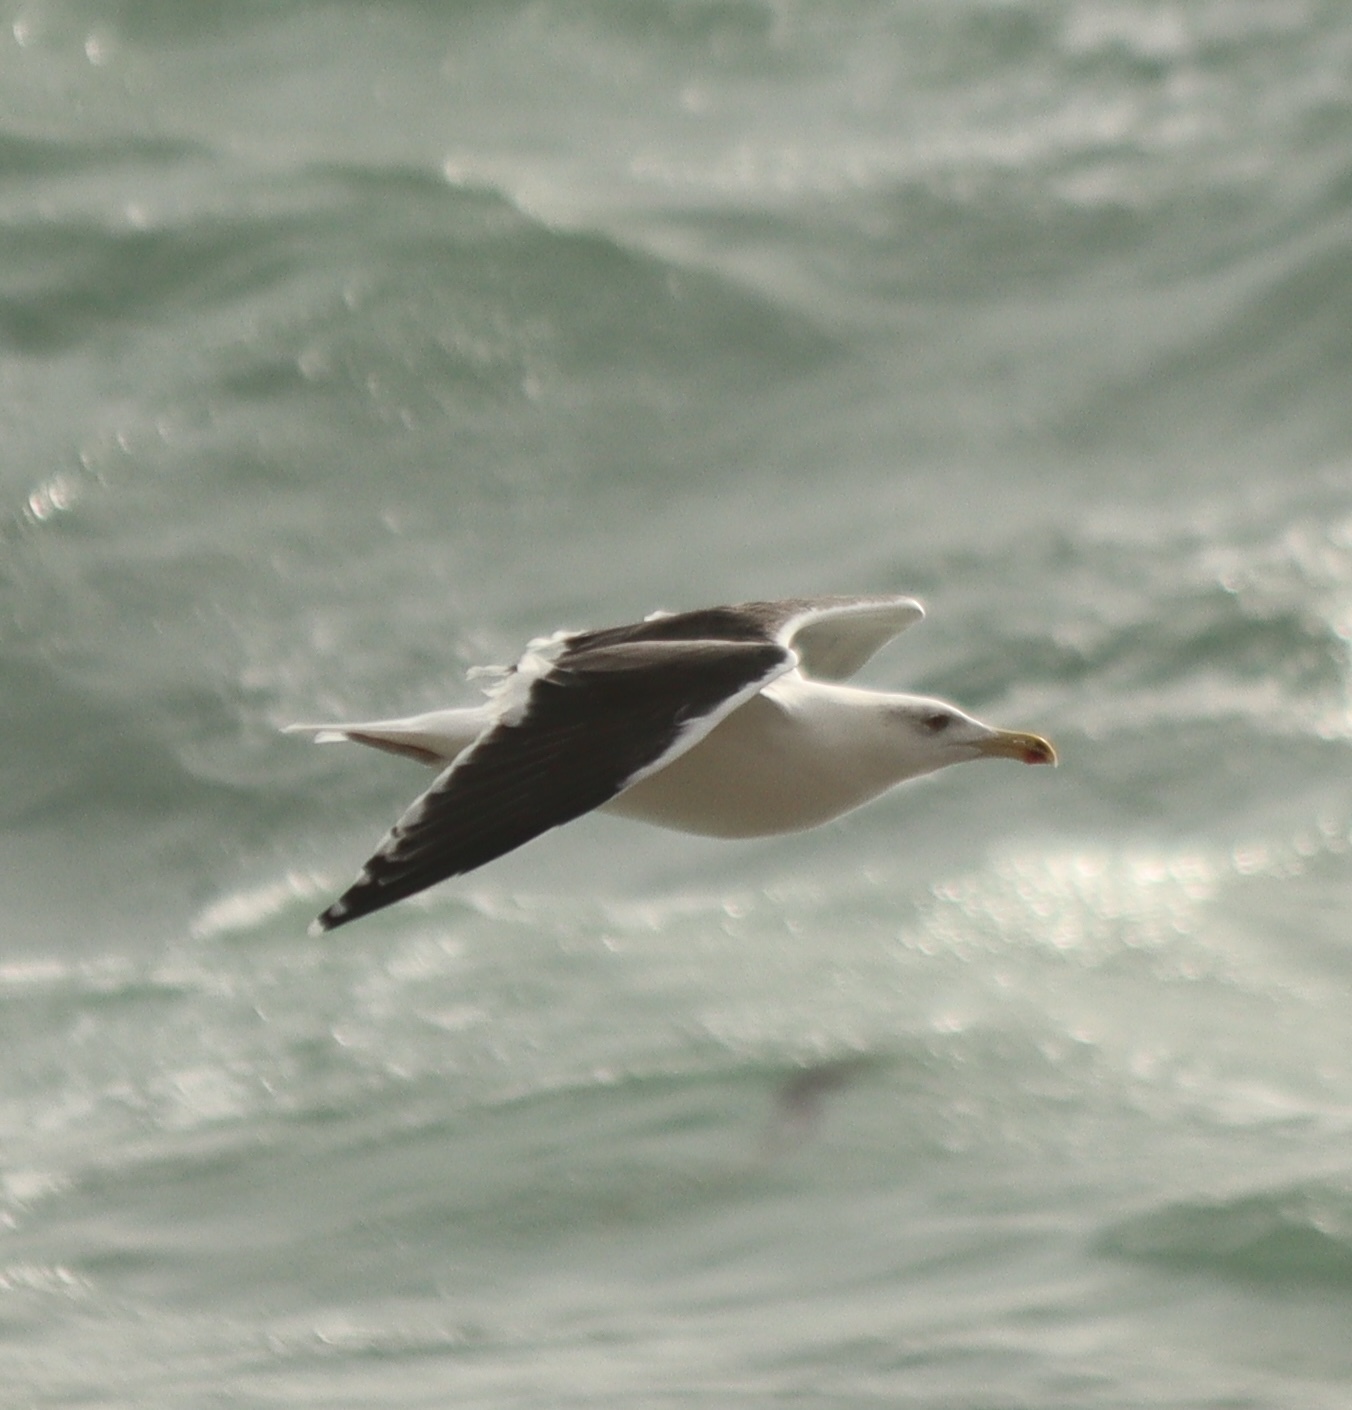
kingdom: Animalia
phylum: Chordata
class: Aves
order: Charadriiformes
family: Laridae
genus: Larus
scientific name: Larus marinus
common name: Great black-backed gull
